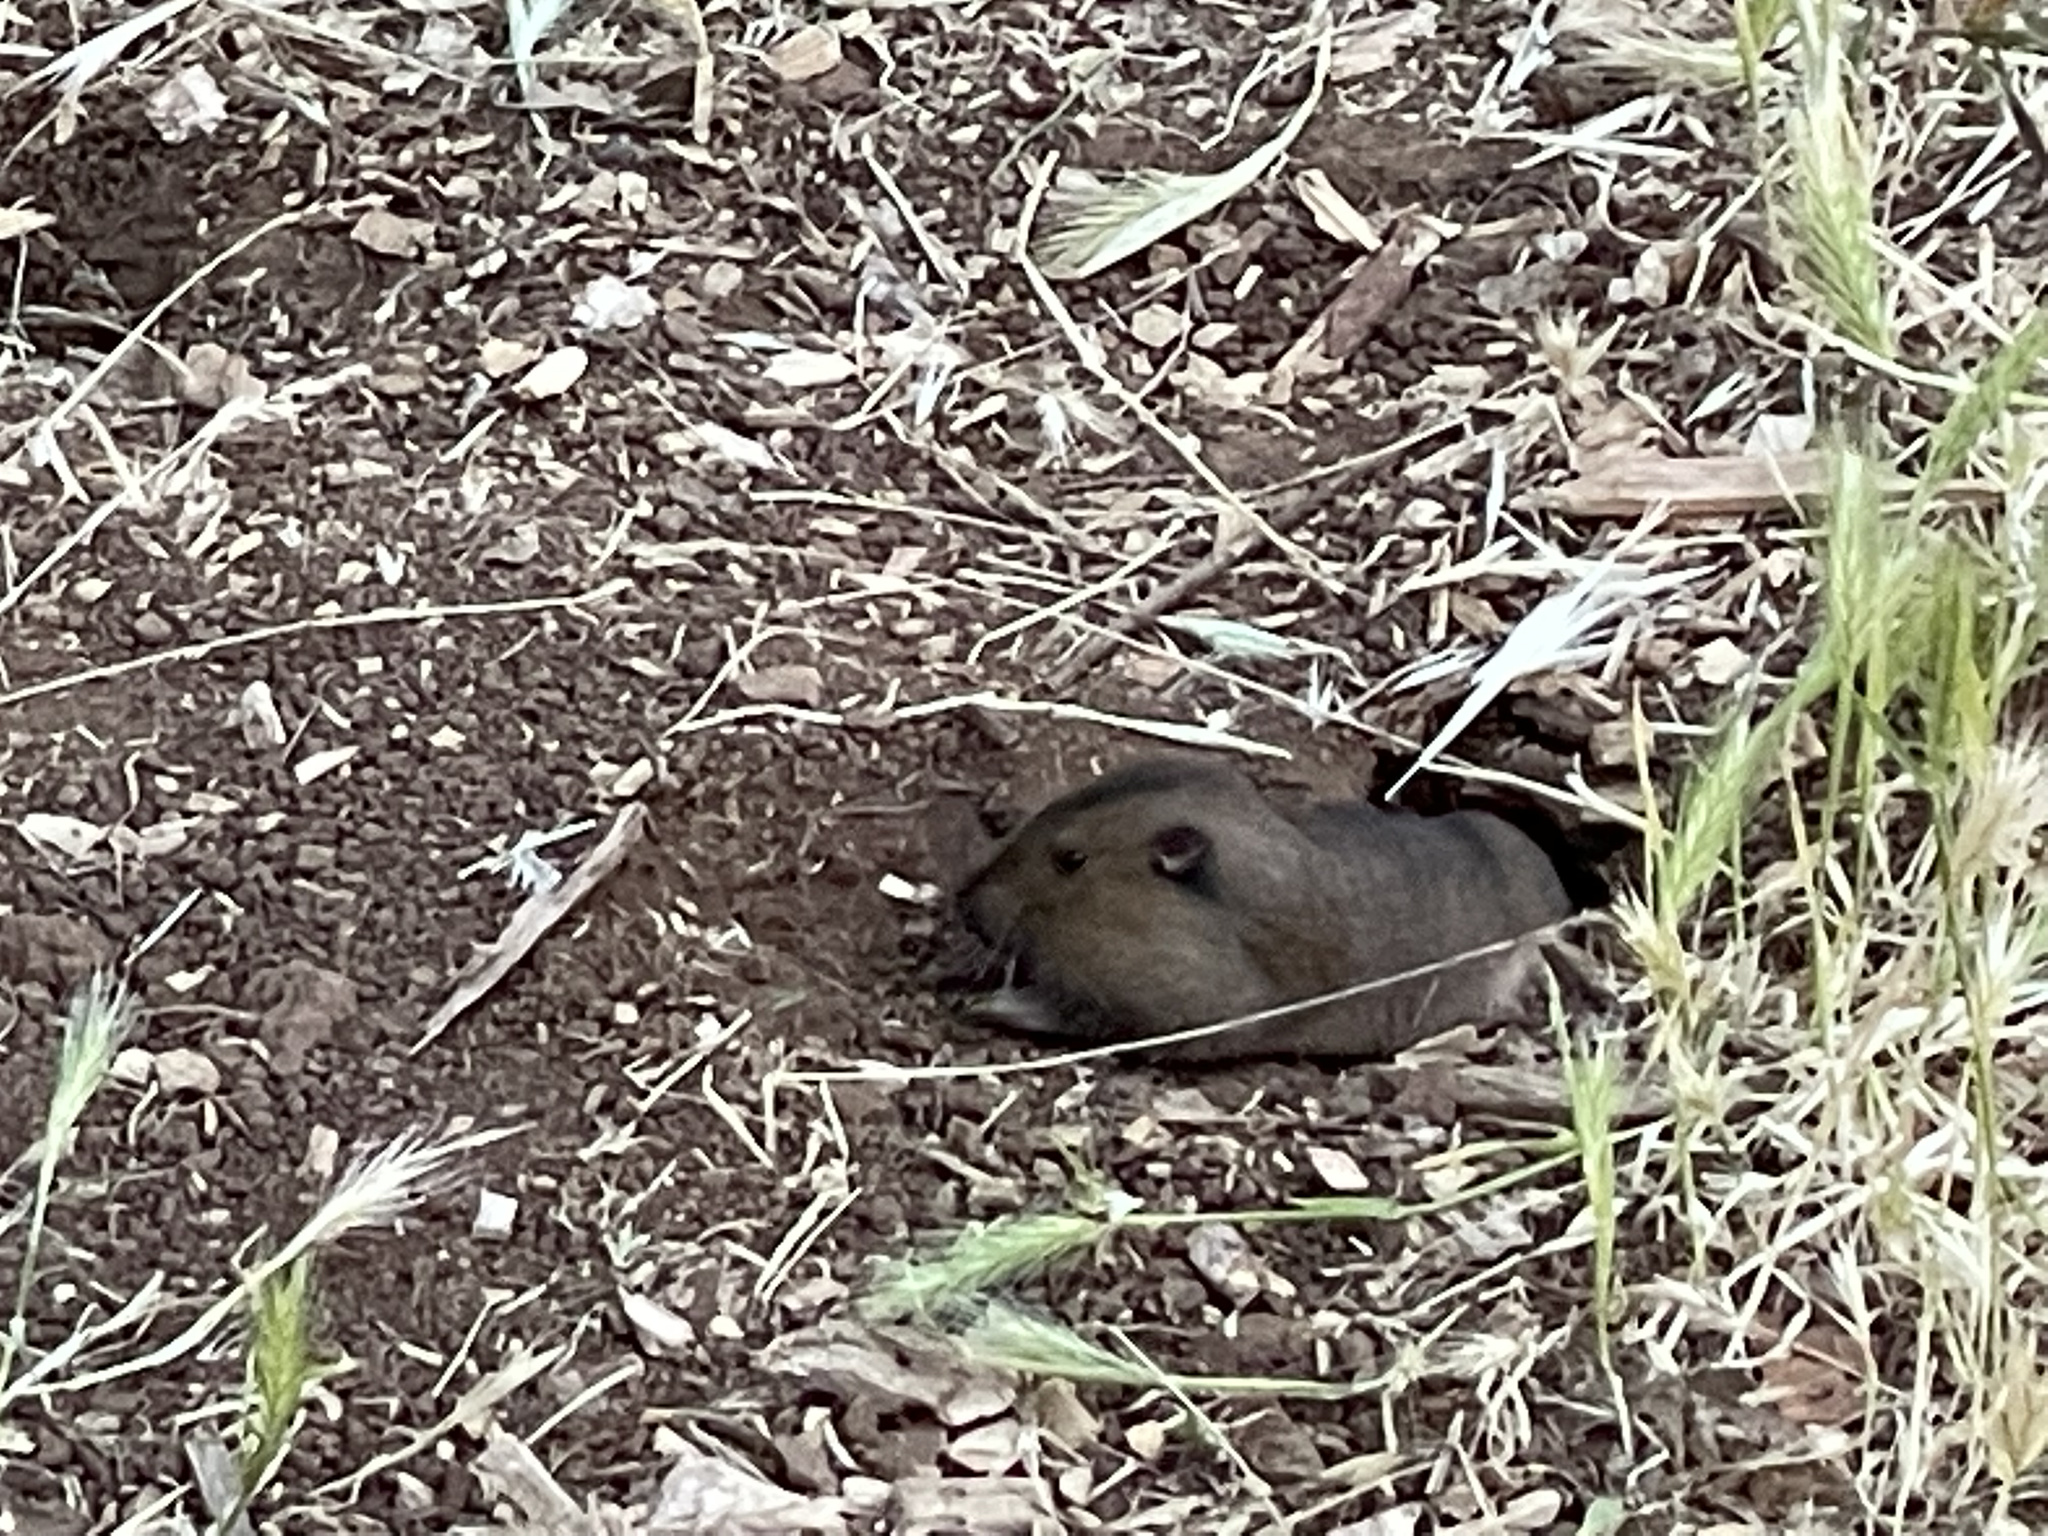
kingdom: Animalia
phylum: Chordata
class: Mammalia
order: Rodentia
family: Geomyidae
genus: Thomomys
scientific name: Thomomys bottae
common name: Botta's pocket gopher
